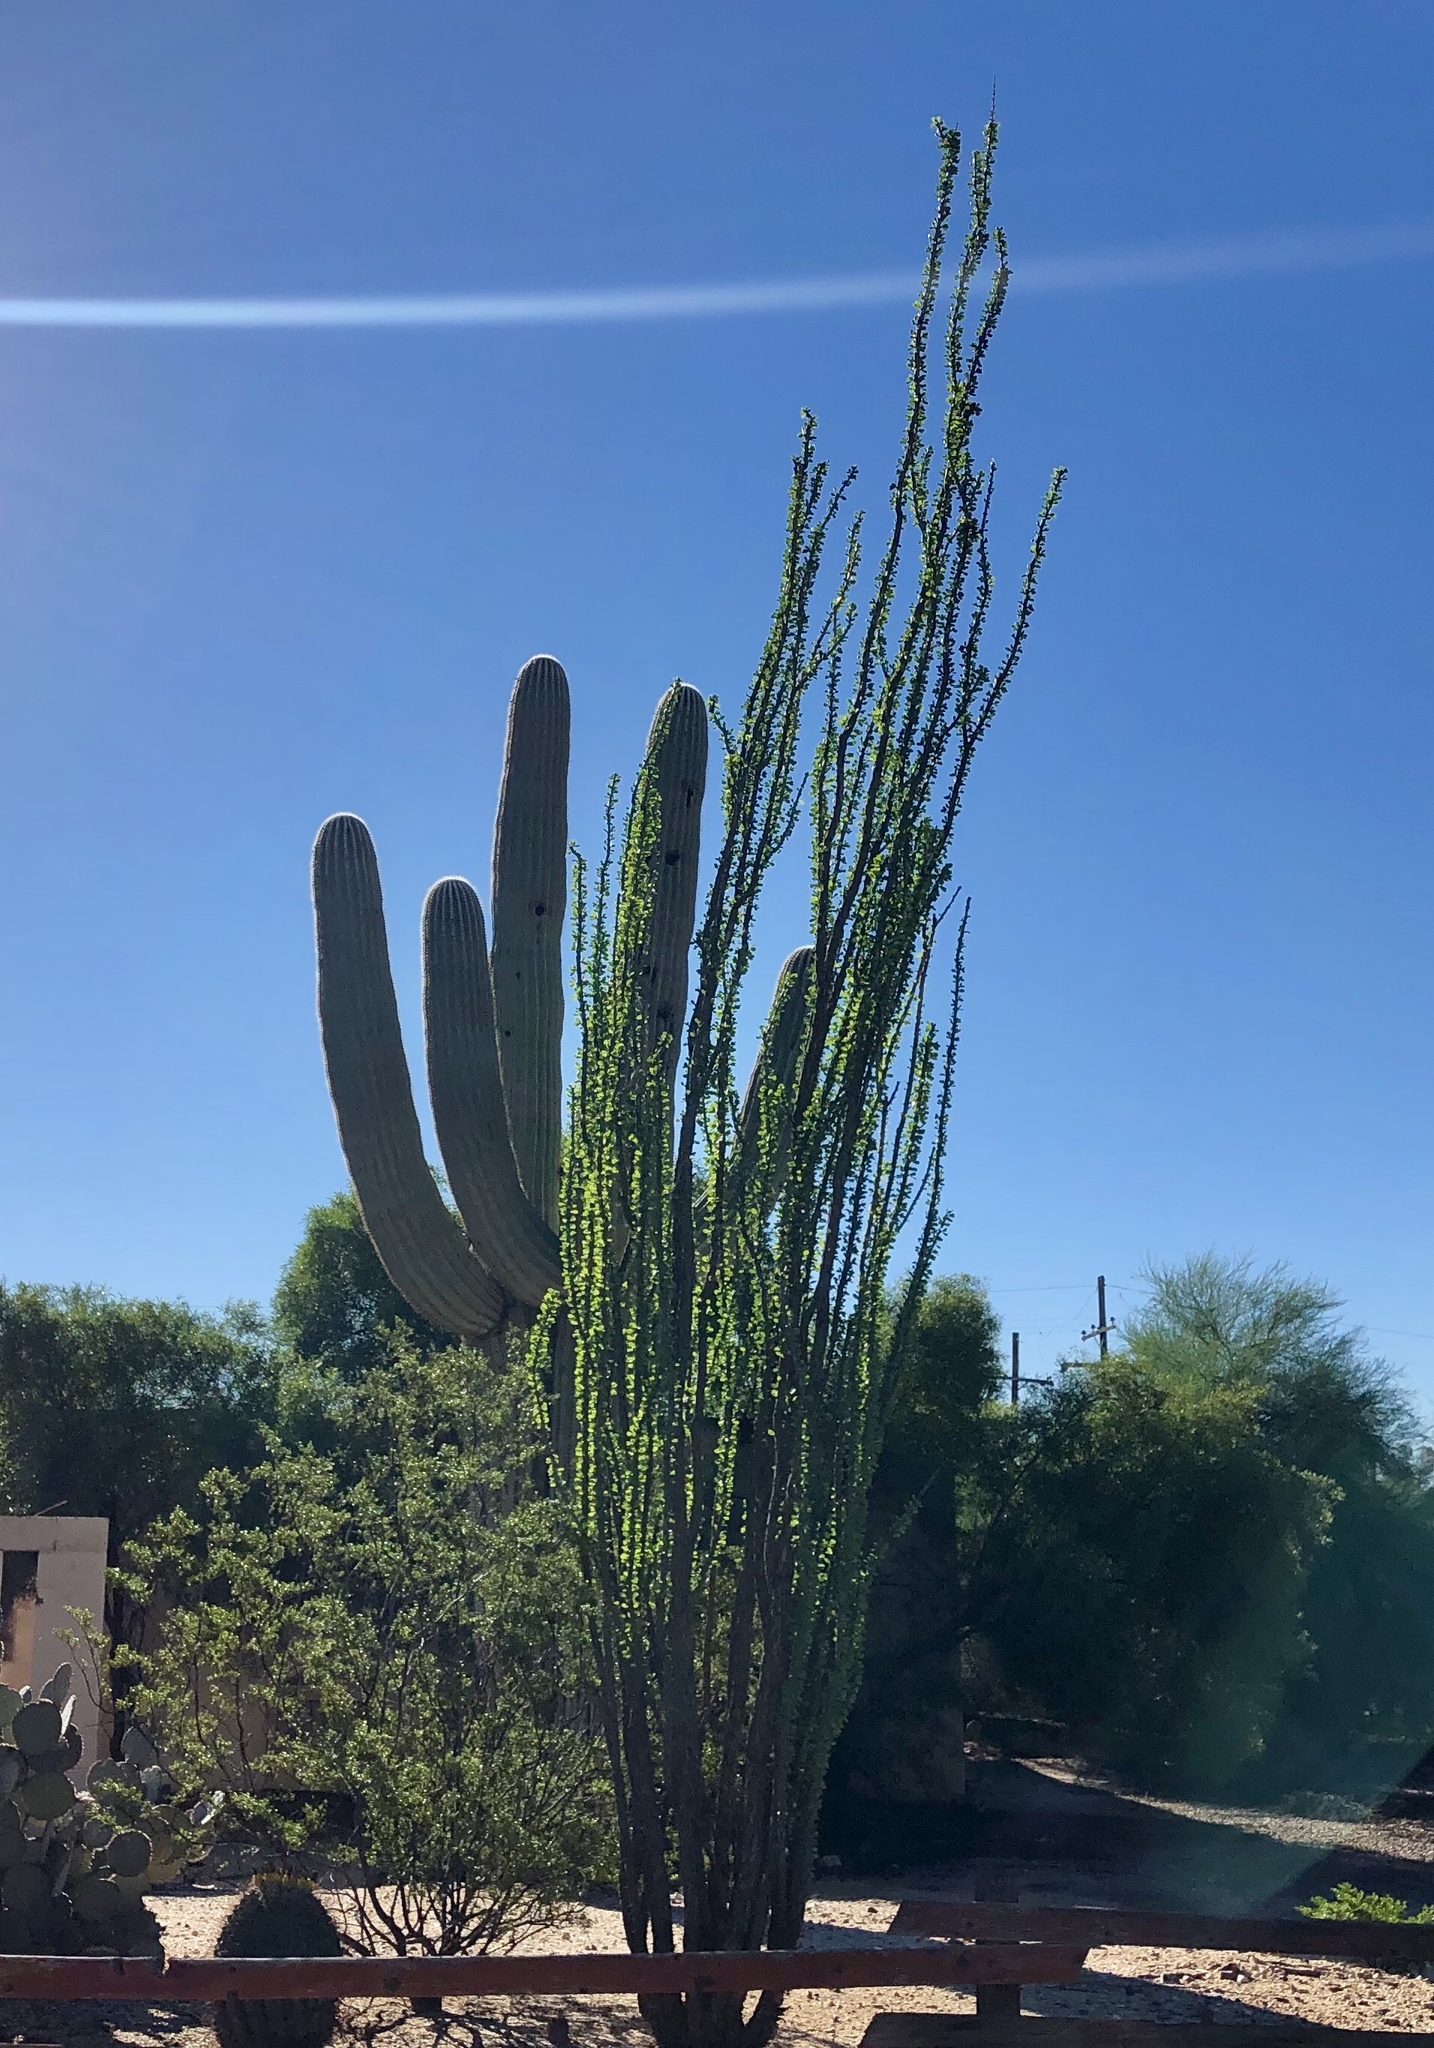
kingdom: Plantae
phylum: Tracheophyta
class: Magnoliopsida
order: Ericales
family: Fouquieriaceae
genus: Fouquieria
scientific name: Fouquieria splendens
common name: Vine-cactus
